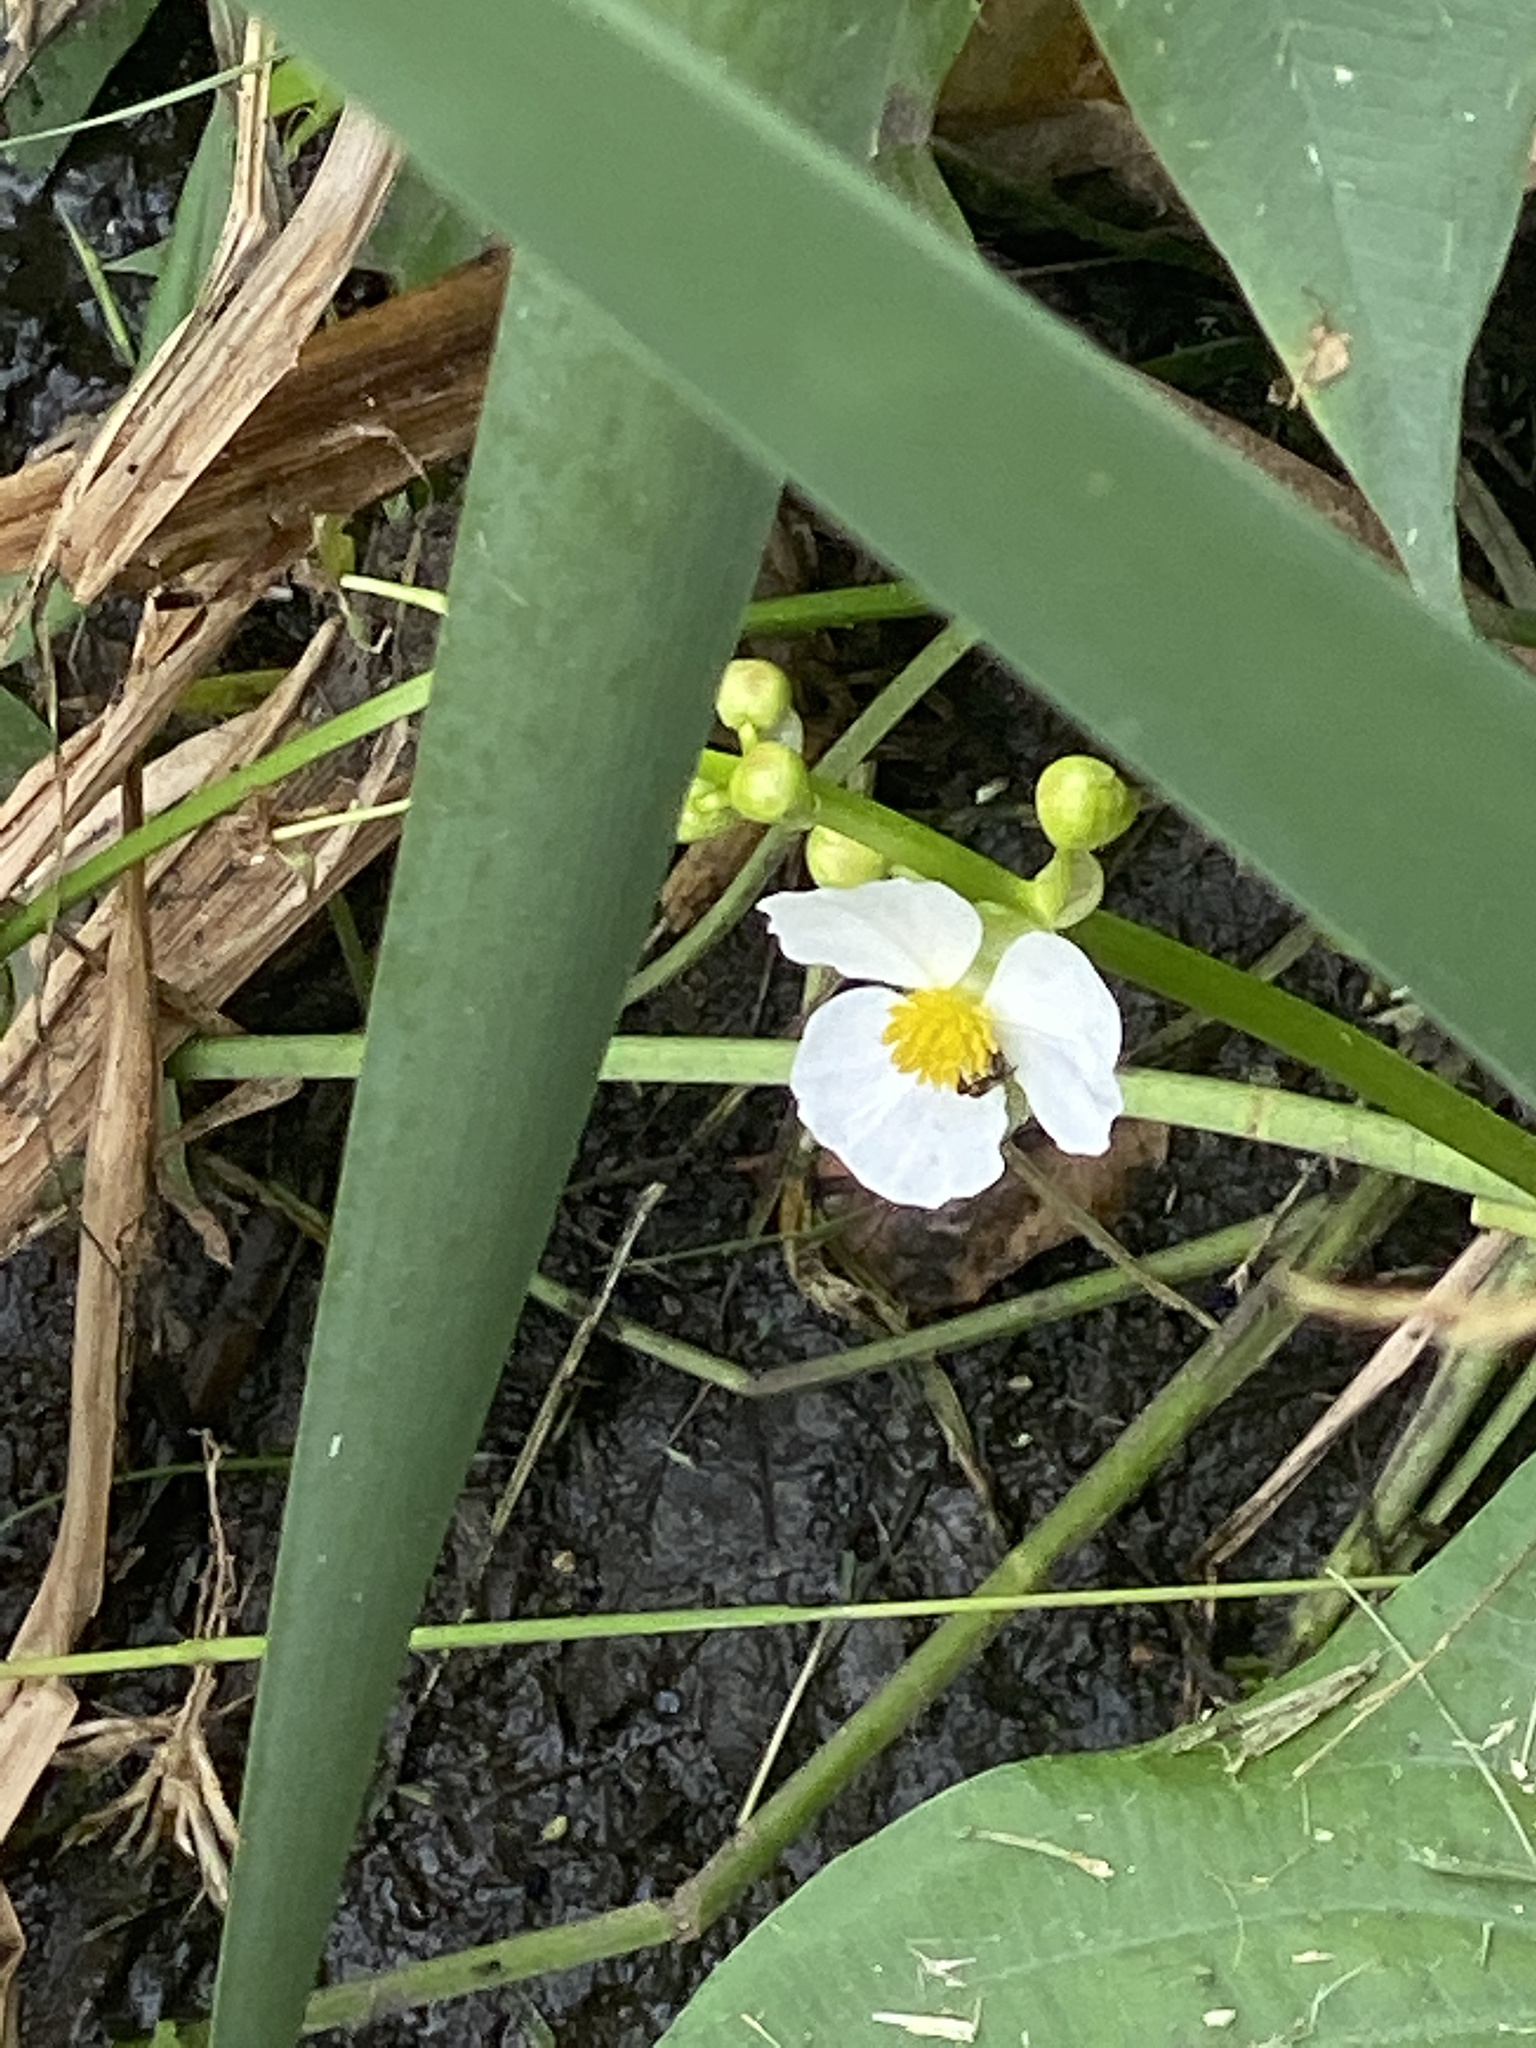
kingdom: Plantae
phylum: Tracheophyta
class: Liliopsida
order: Alismatales
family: Alismataceae
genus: Sagittaria
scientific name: Sagittaria latifolia
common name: Duck-potato
